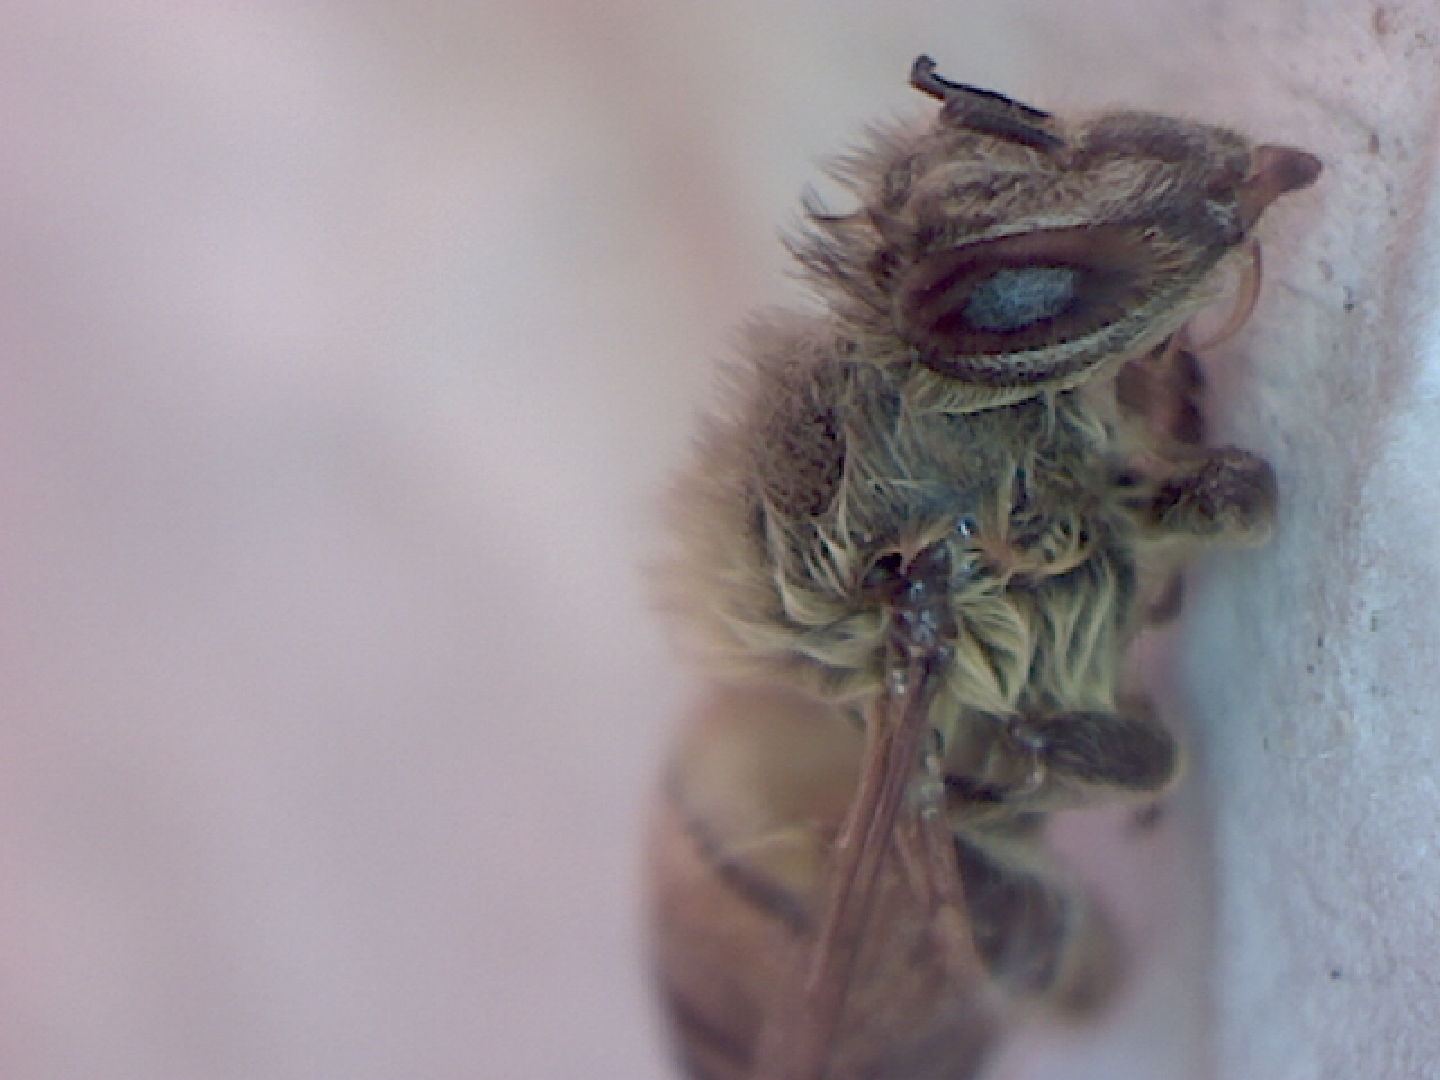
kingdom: Animalia
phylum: Arthropoda
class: Insecta
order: Hymenoptera
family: Apidae
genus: Apis
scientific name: Apis mellifera
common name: Honey bee
